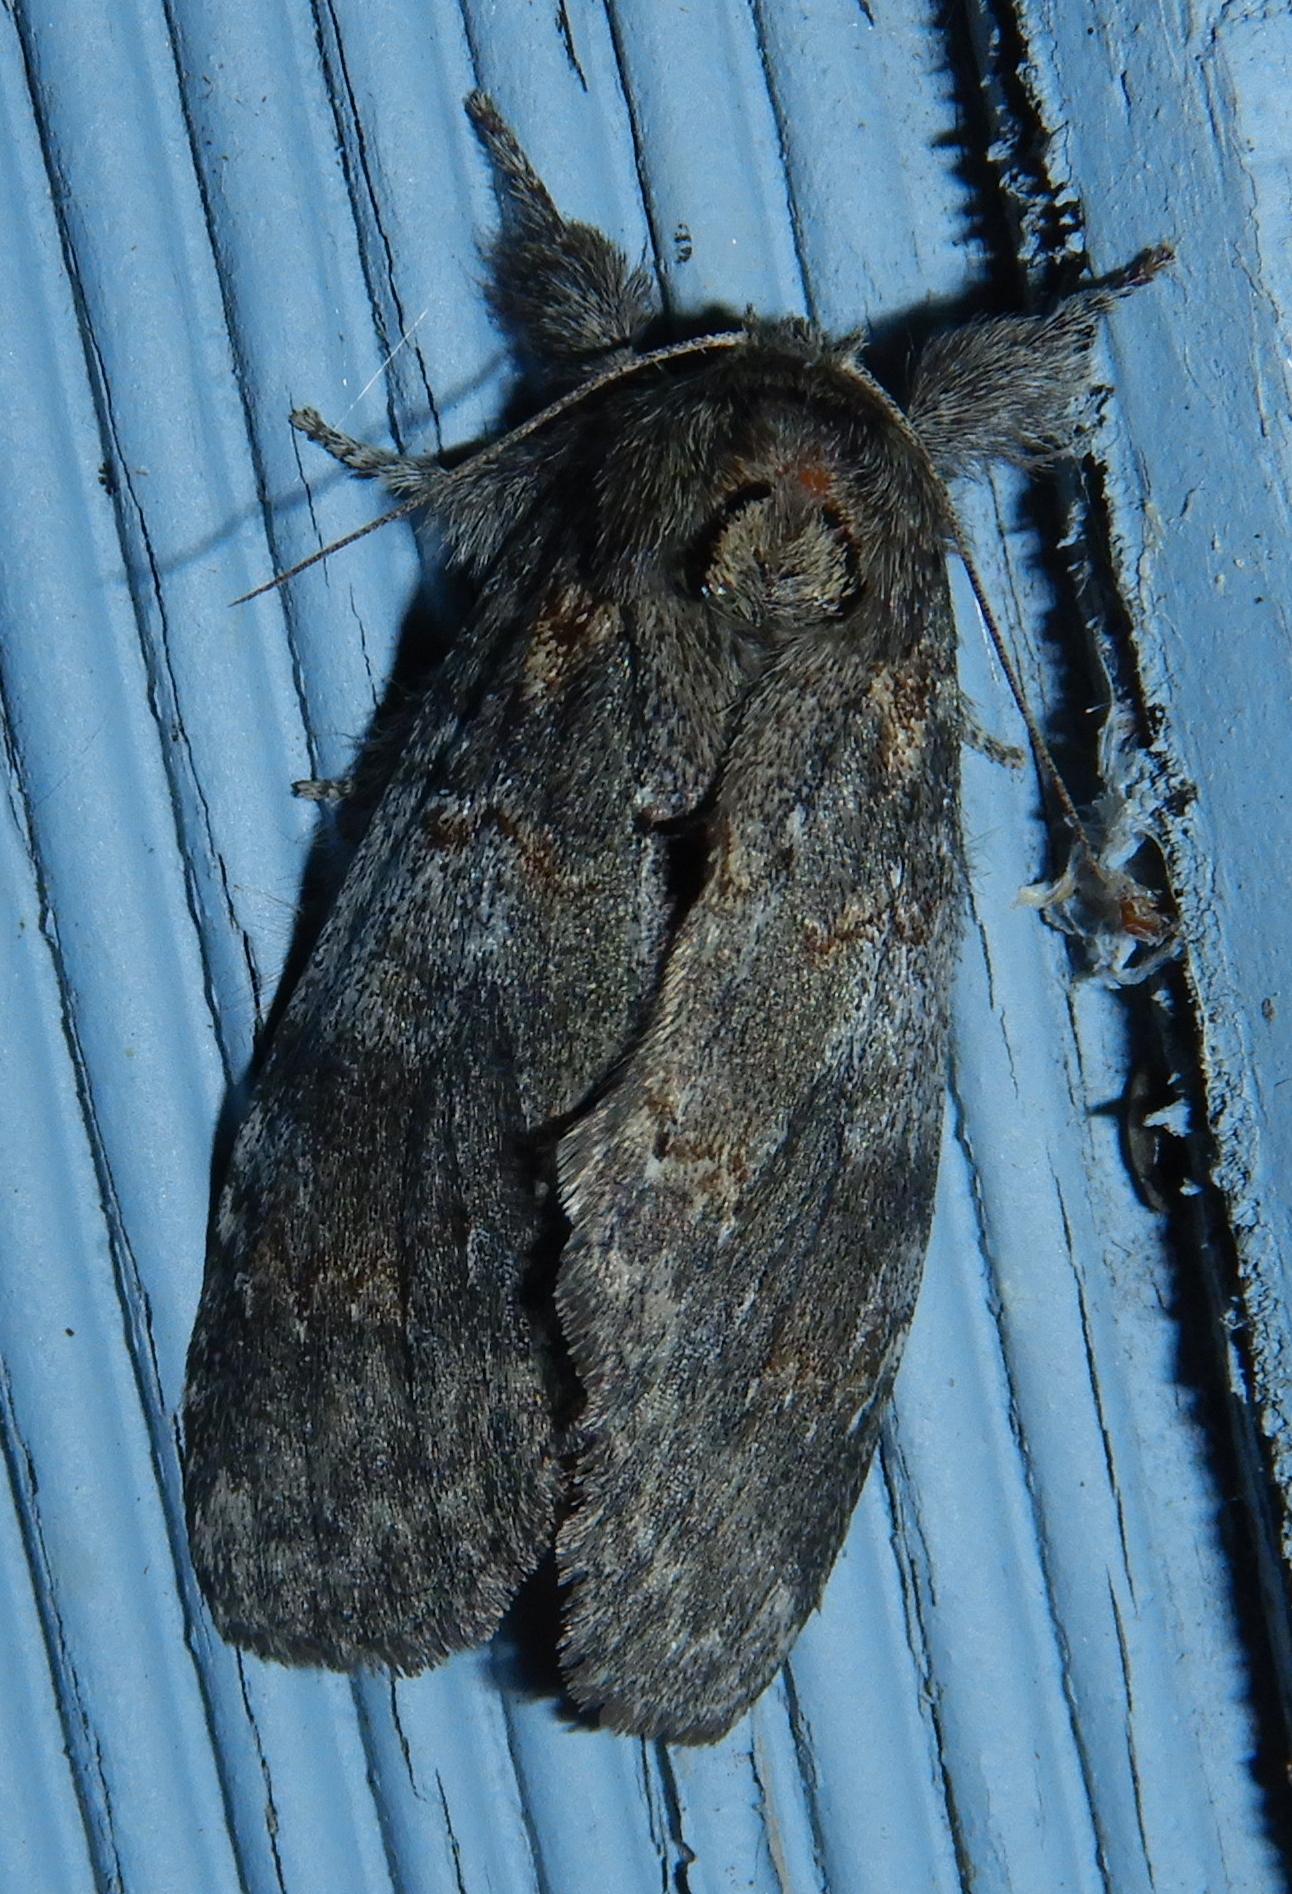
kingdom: Animalia
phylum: Arthropoda
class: Insecta
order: Lepidoptera
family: Notodontidae
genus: Peridea
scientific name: Peridea angulosa
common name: Angulose prominent
